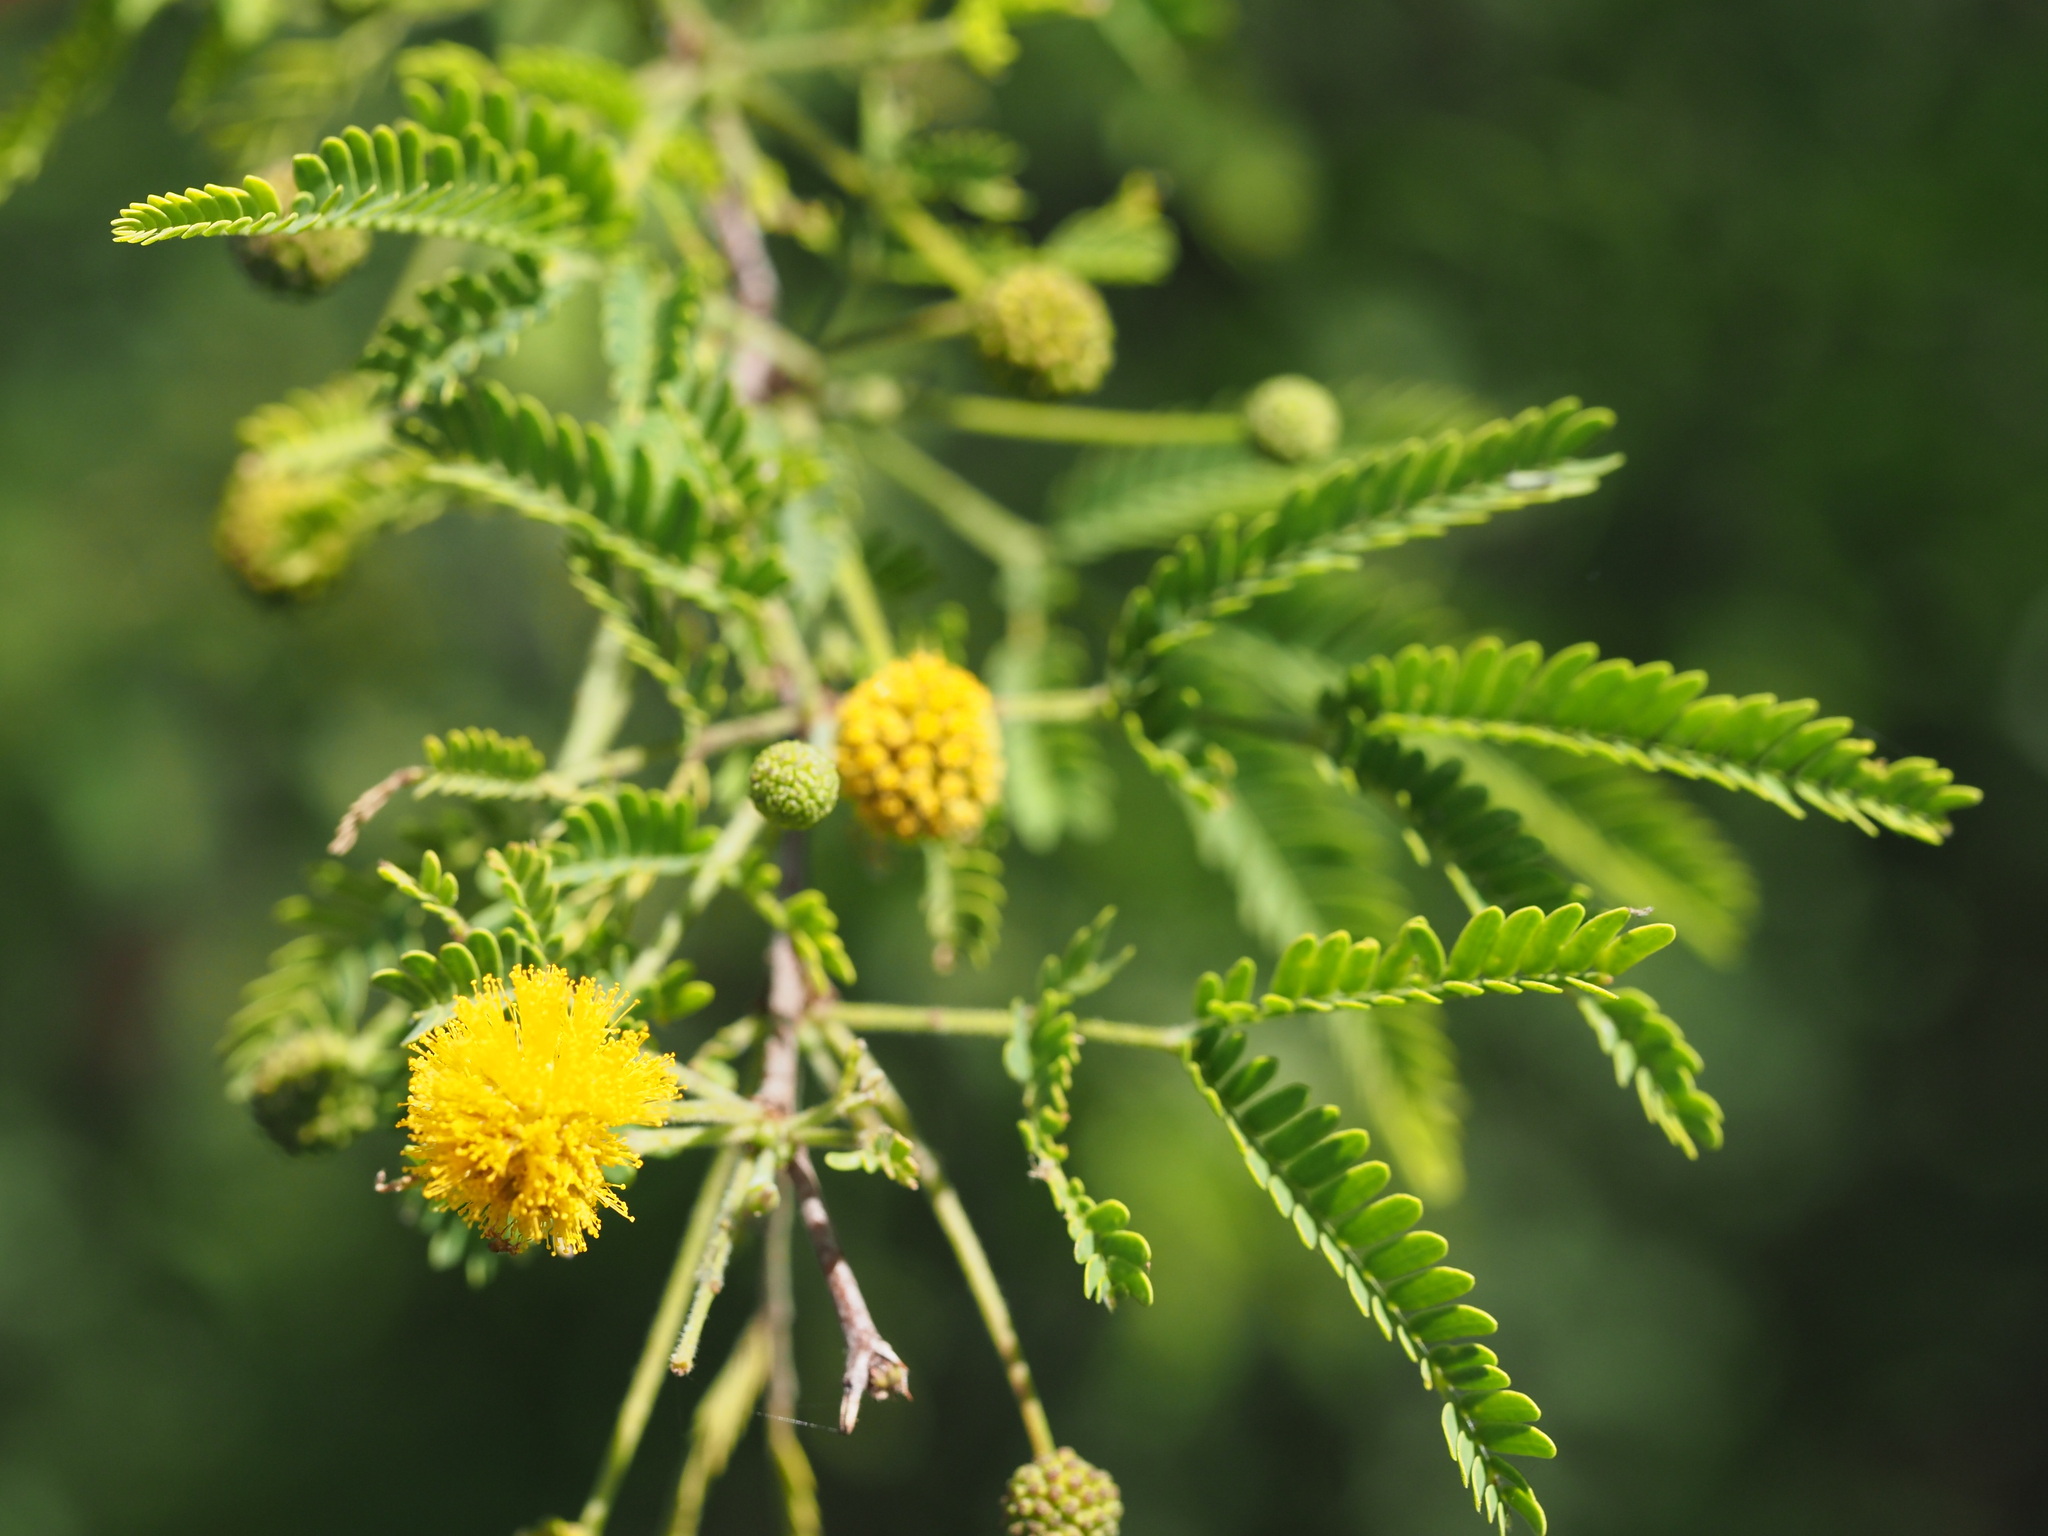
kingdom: Plantae
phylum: Tracheophyta
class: Magnoliopsida
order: Fabales
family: Fabaceae
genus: Vachellia
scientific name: Vachellia farnesiana
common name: Sweet acacia
